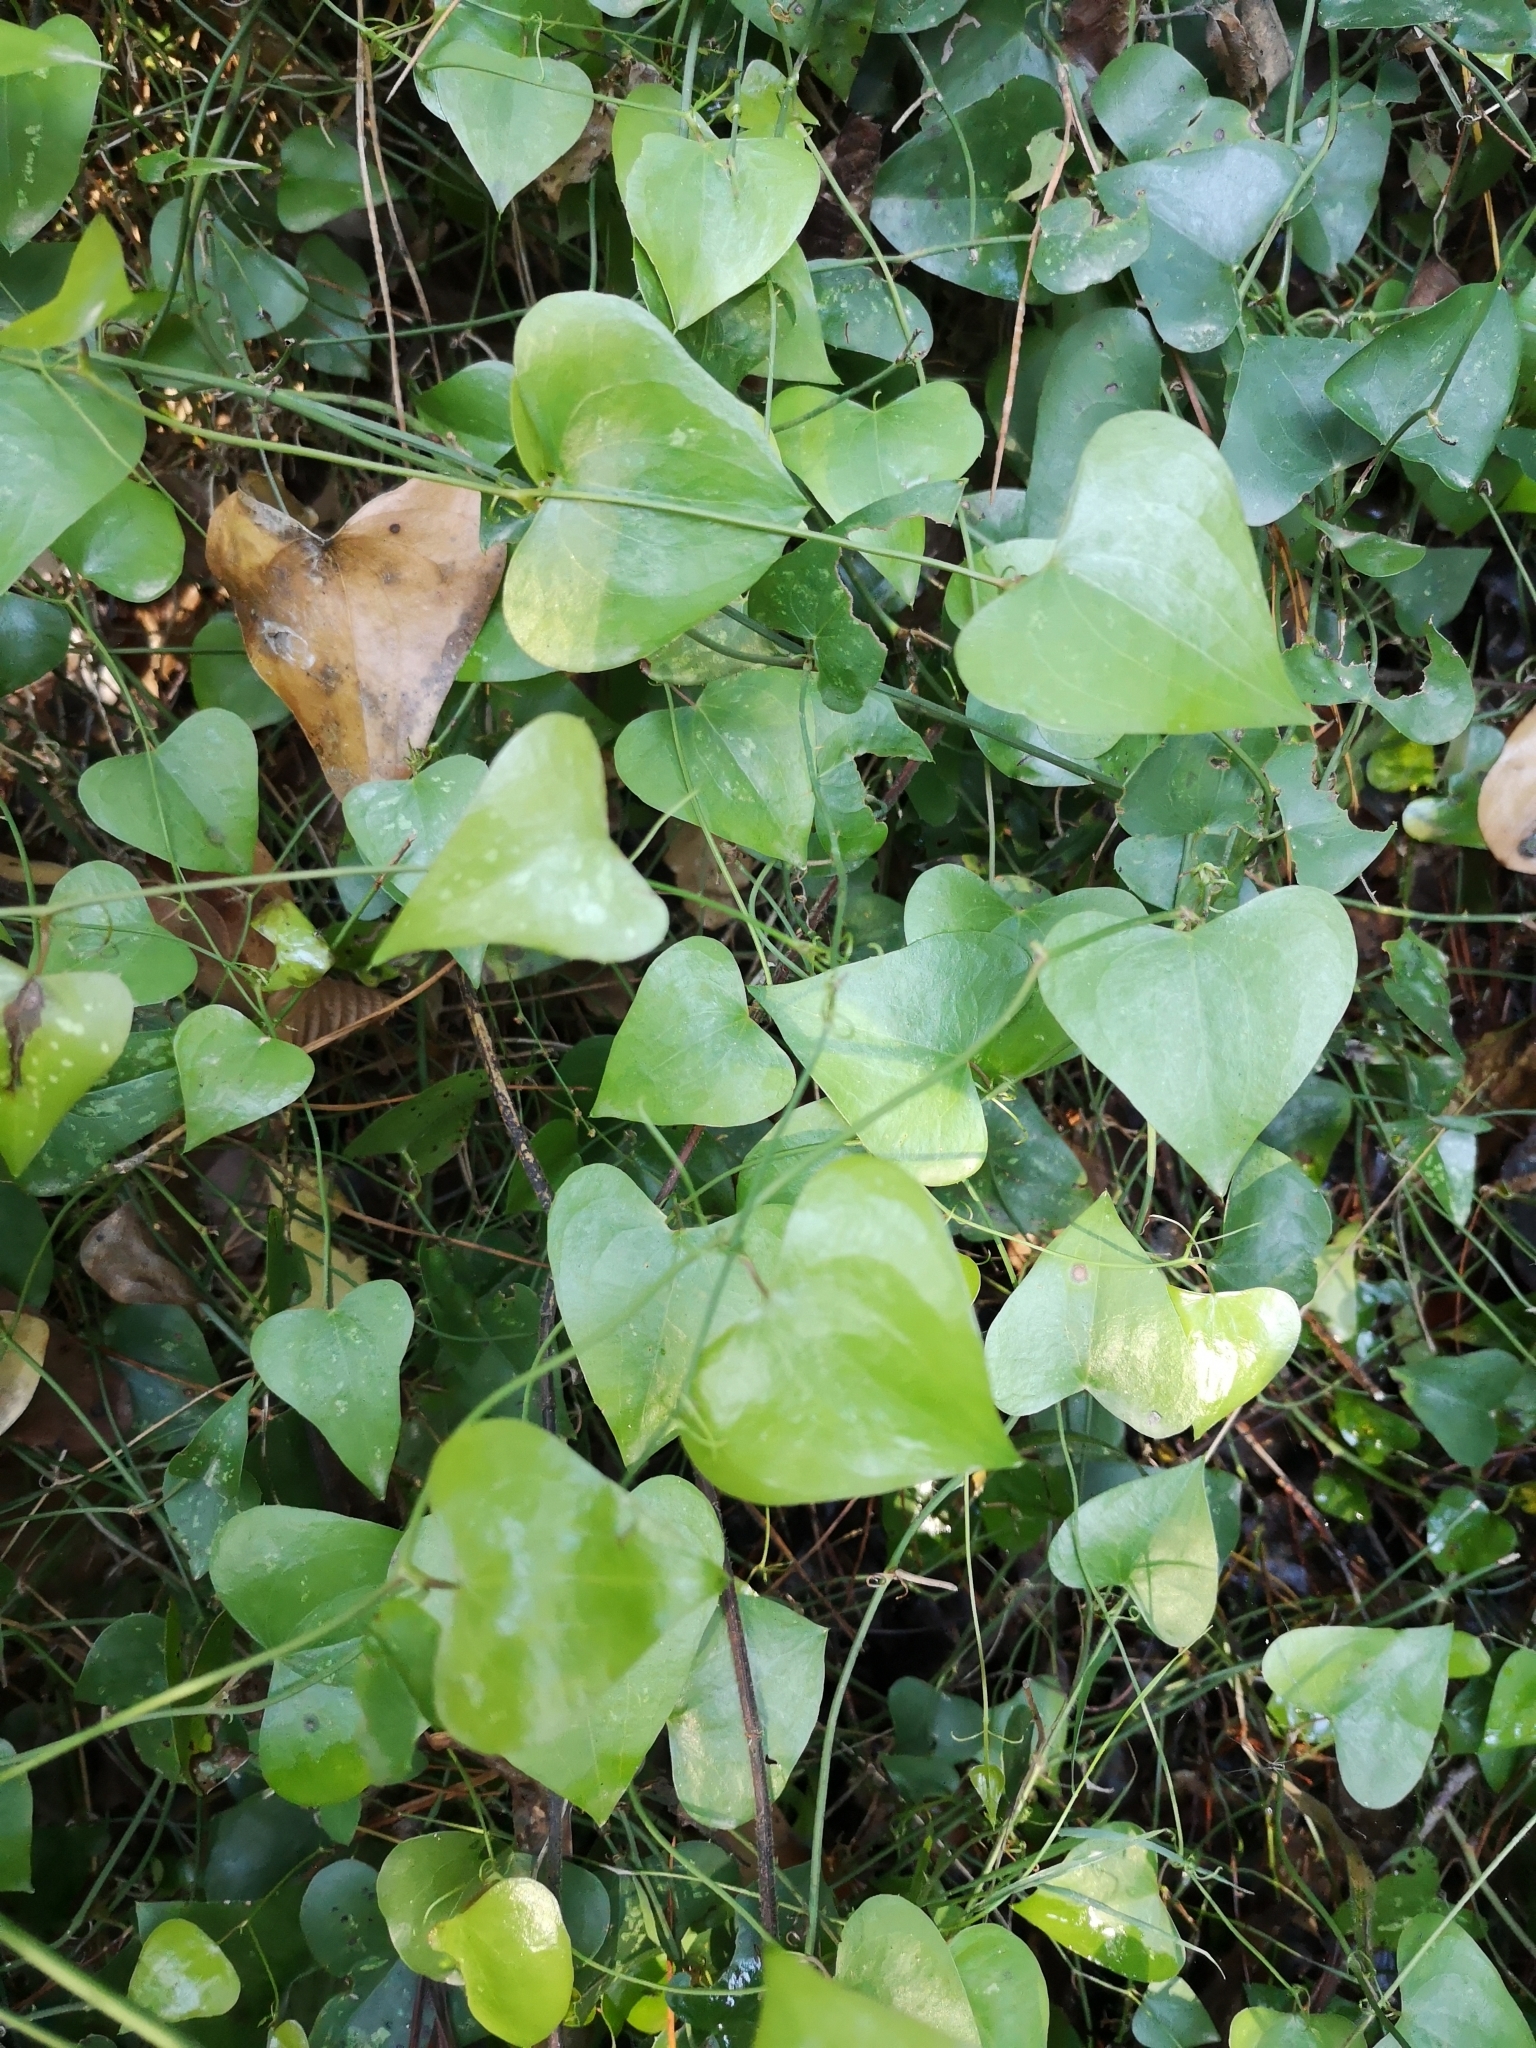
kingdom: Plantae
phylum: Tracheophyta
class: Liliopsida
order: Liliales
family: Smilacaceae
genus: Smilax
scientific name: Smilax aspera
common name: Common smilax
